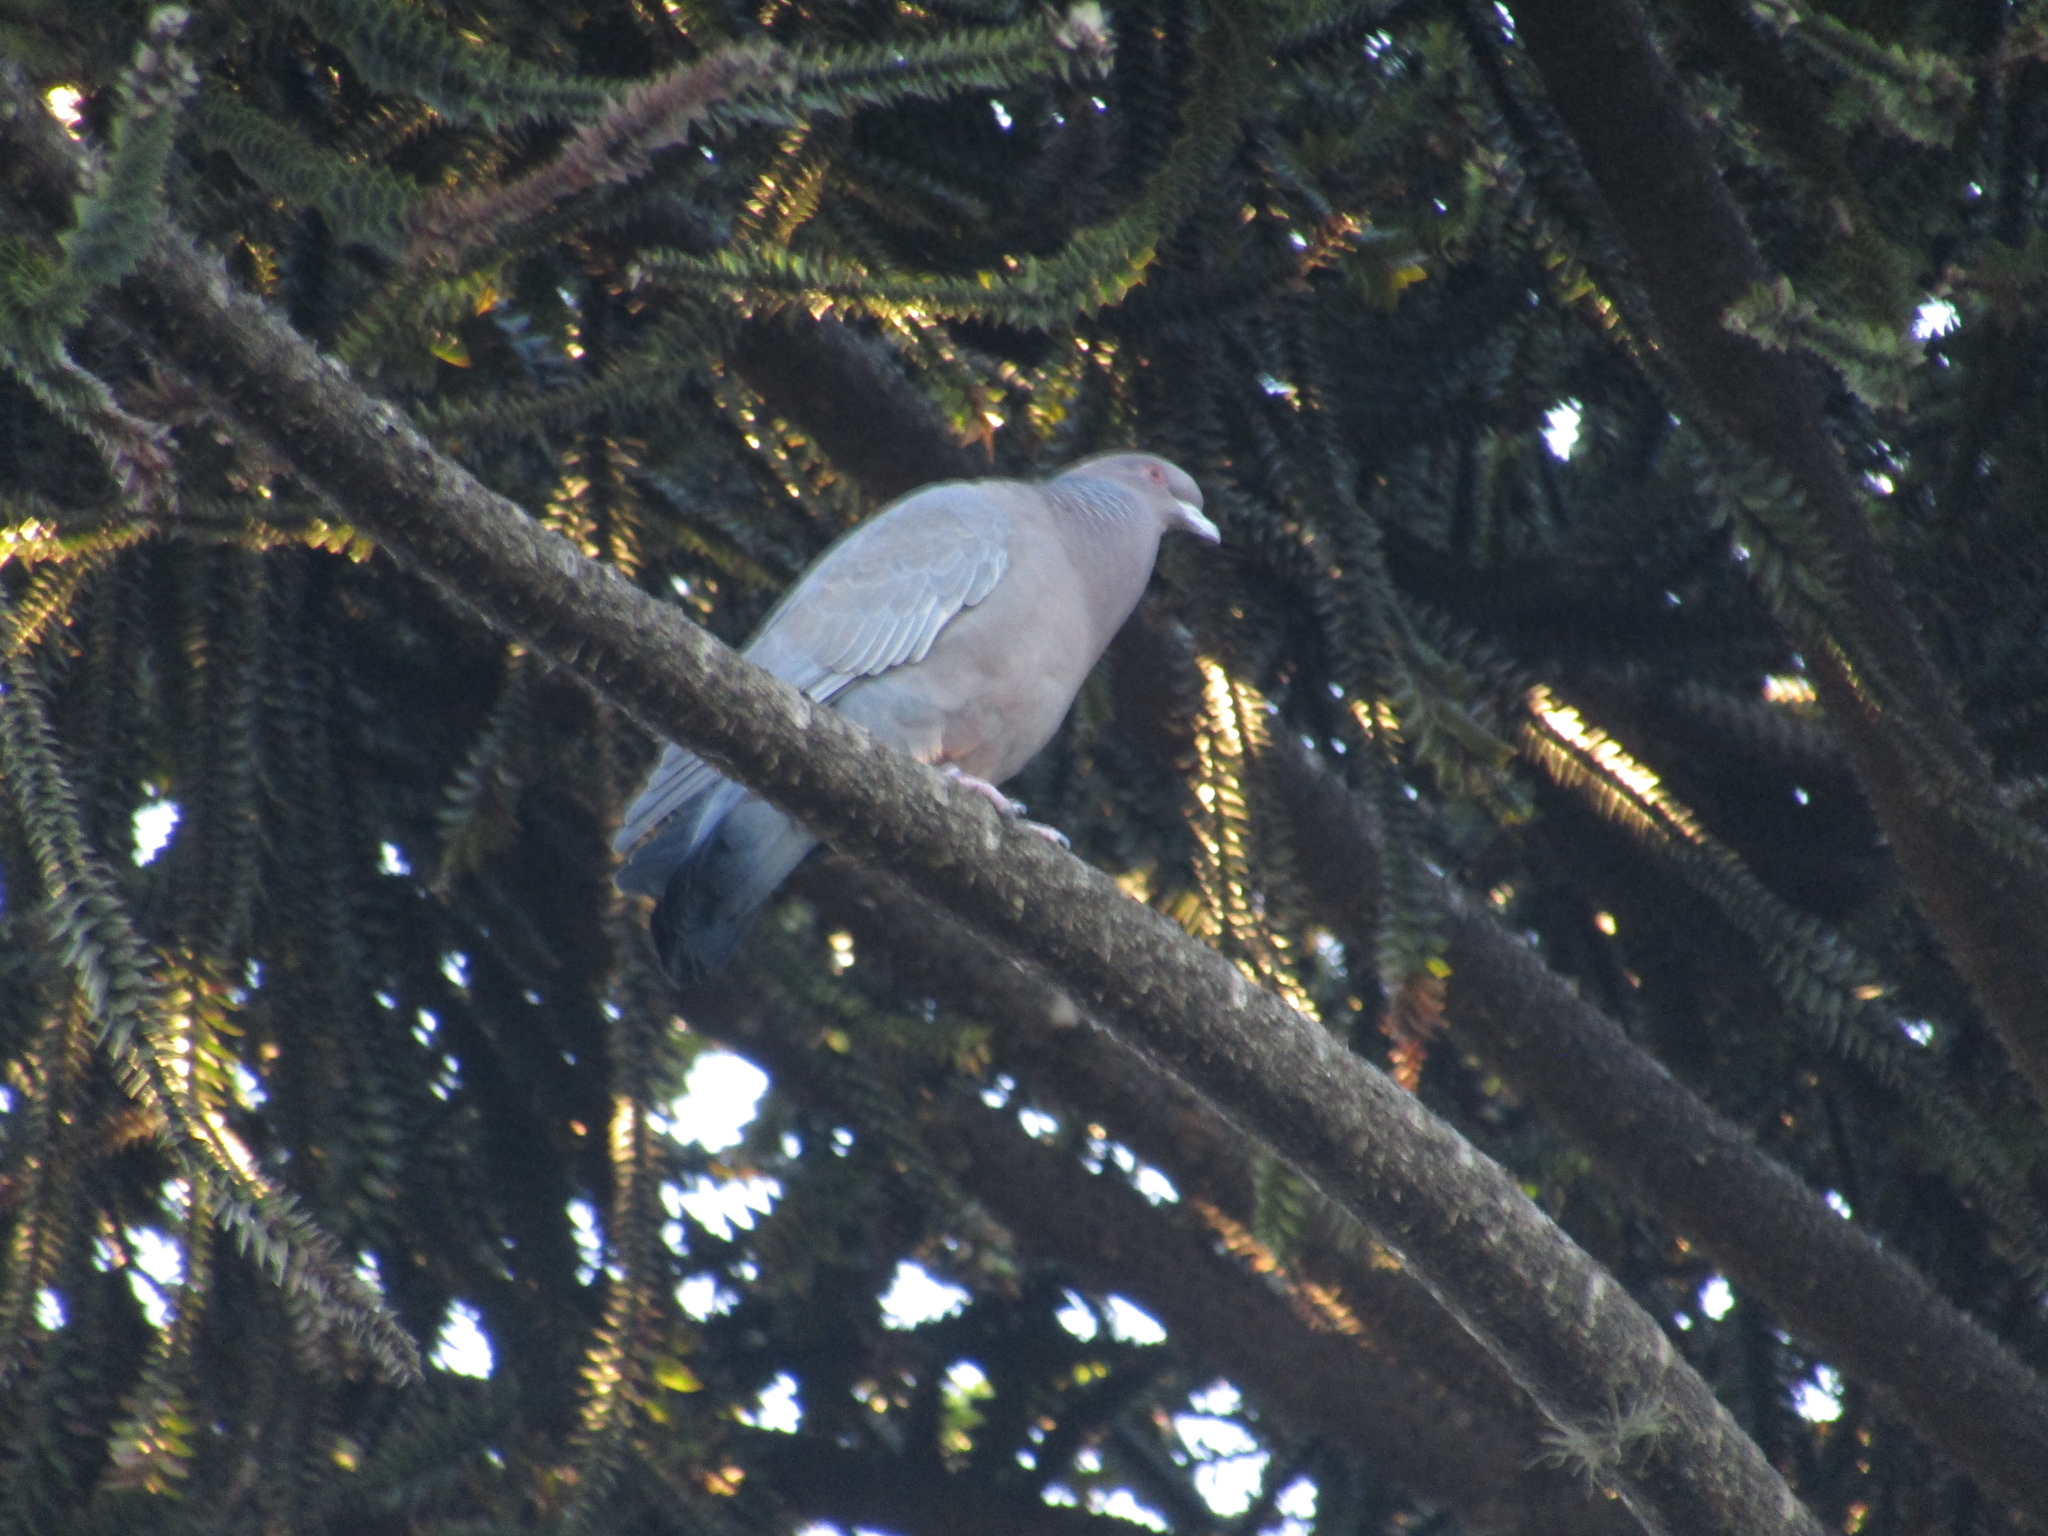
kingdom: Animalia
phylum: Chordata
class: Aves
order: Columbiformes
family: Columbidae
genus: Patagioenas
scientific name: Patagioenas picazuro
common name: Picazuro pigeon
